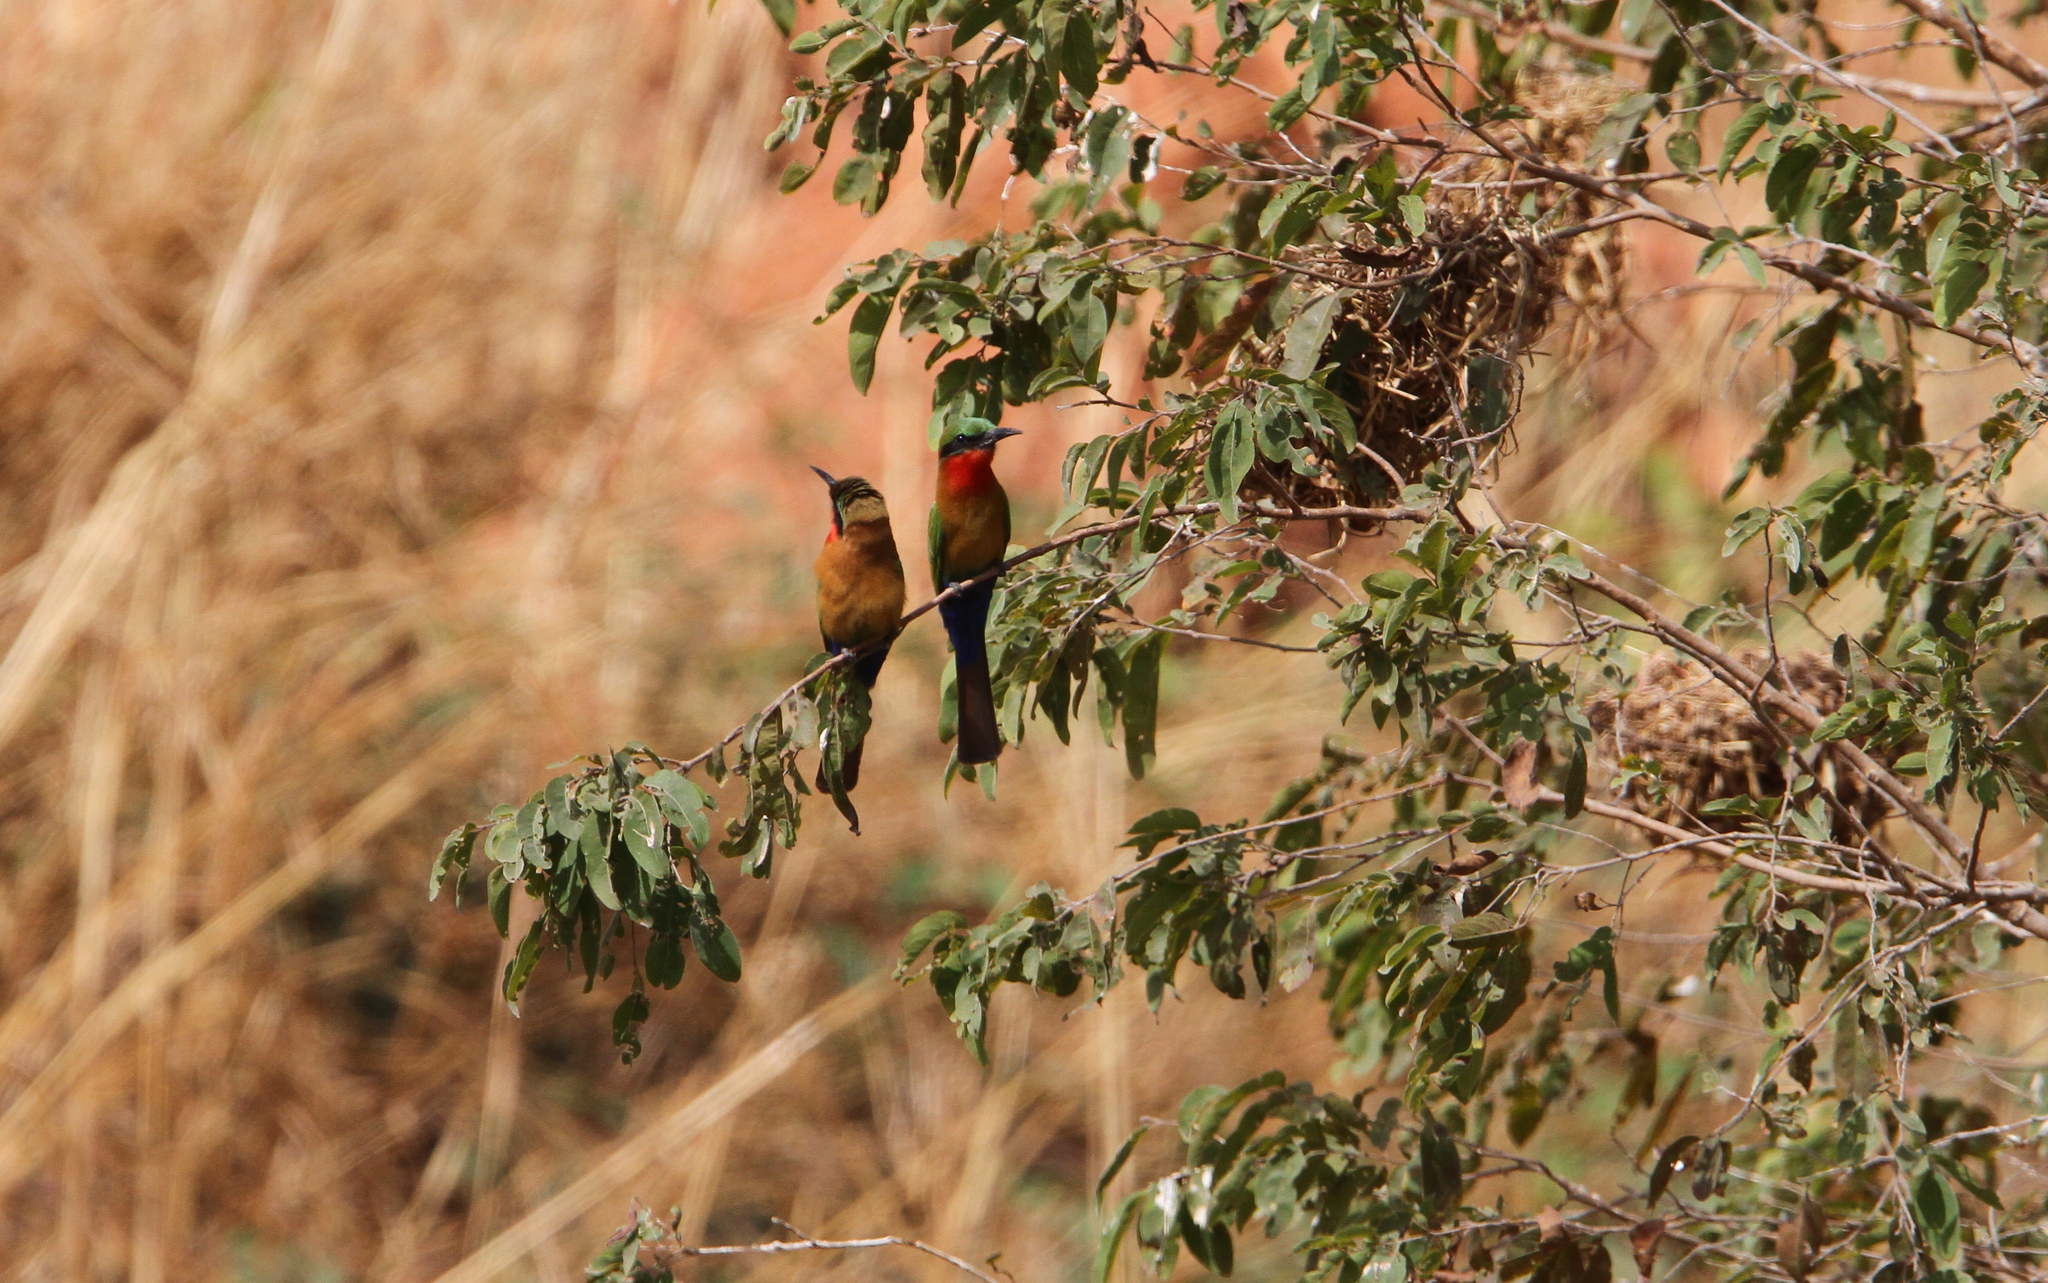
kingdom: Animalia
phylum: Chordata
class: Aves
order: Coraciiformes
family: Meropidae
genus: Merops
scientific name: Merops bulocki
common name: Red-throated bee-eater
